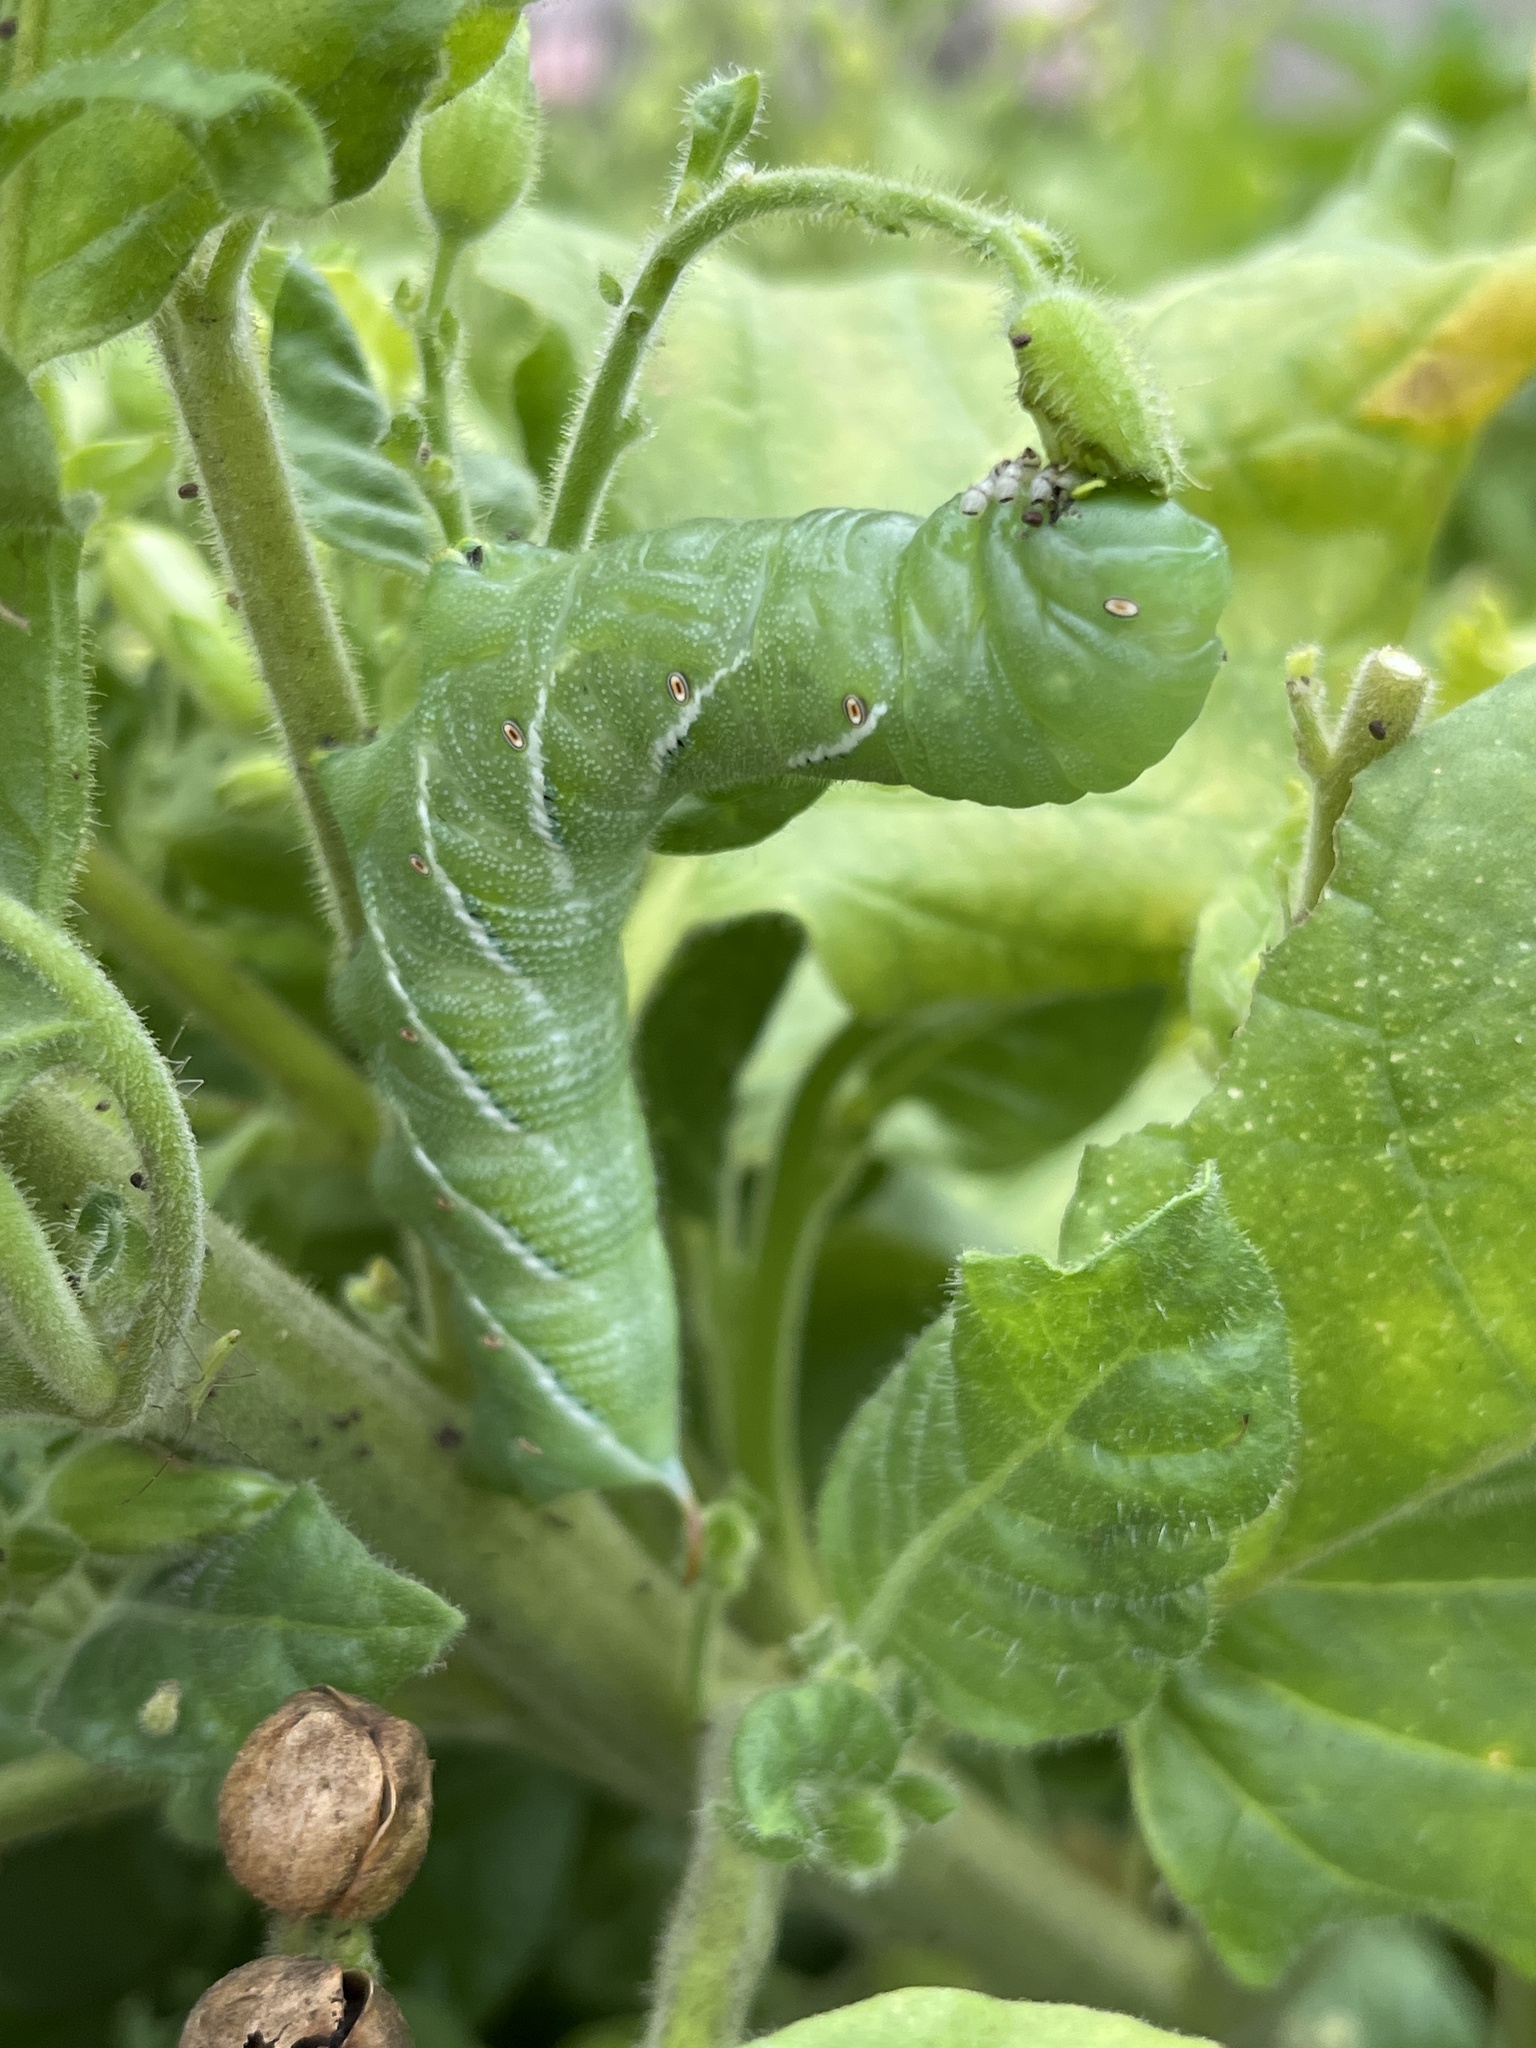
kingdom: Animalia
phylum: Arthropoda
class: Insecta
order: Lepidoptera
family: Sphingidae
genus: Manduca
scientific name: Manduca sexta
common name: Carolina sphinx
